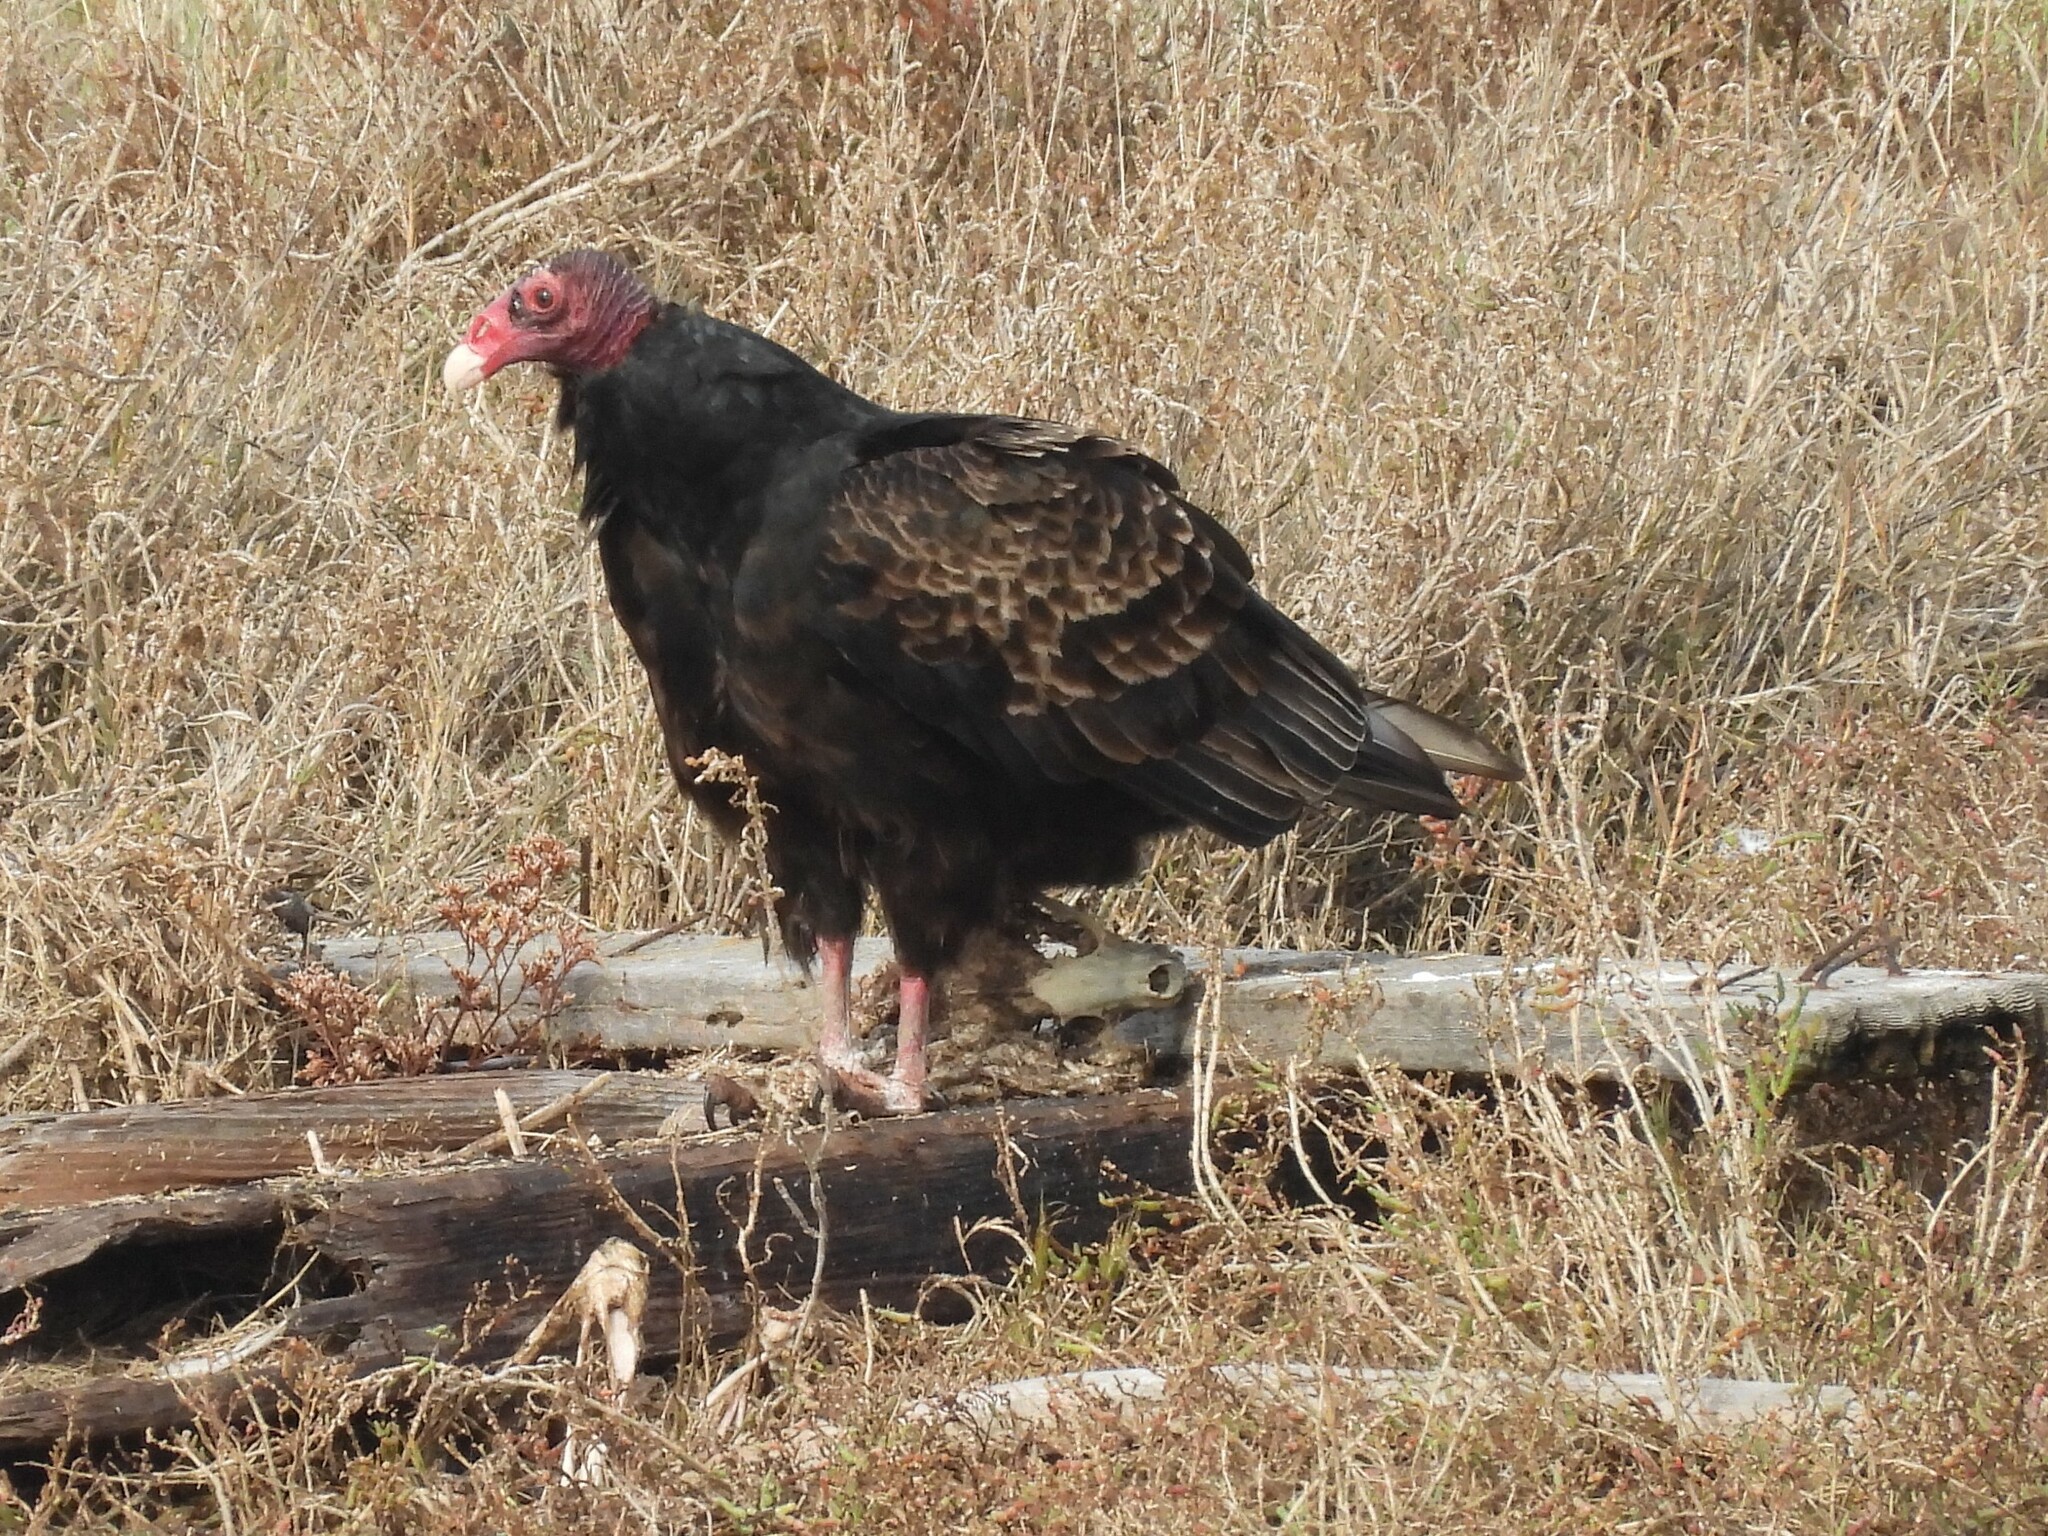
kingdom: Animalia
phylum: Chordata
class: Aves
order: Accipitriformes
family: Cathartidae
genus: Cathartes
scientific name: Cathartes aura
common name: Turkey vulture
